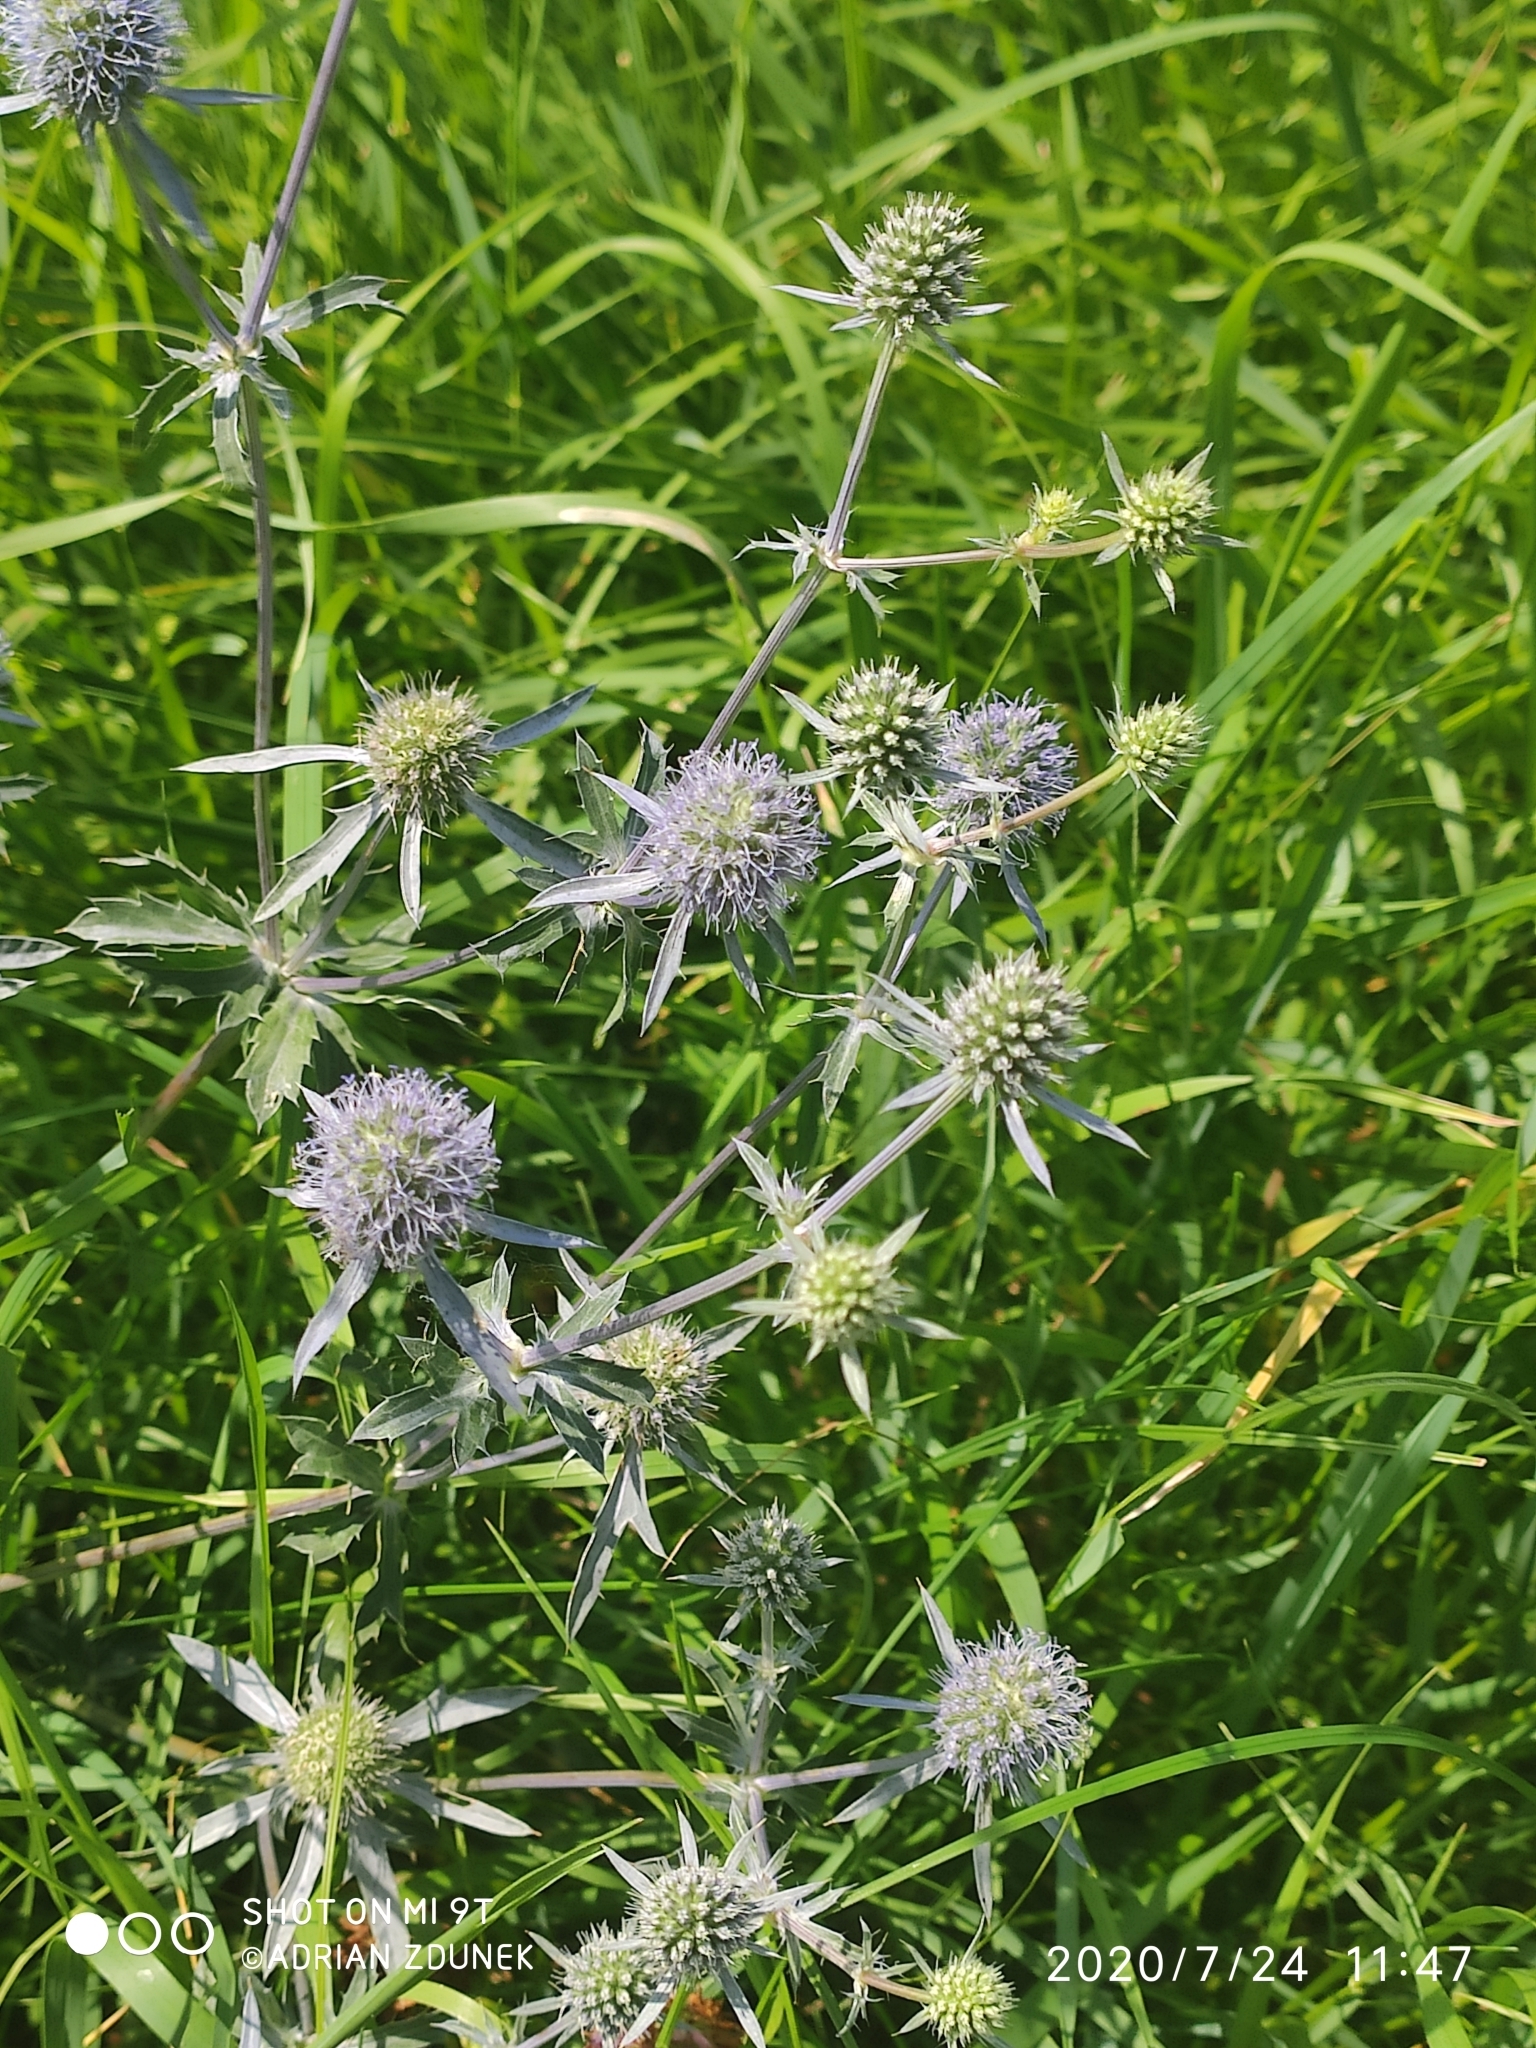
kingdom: Plantae
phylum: Tracheophyta
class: Magnoliopsida
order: Apiales
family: Apiaceae
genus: Eryngium
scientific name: Eryngium planum
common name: Blue eryngo
